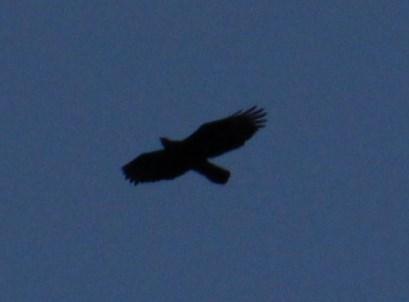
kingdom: Animalia
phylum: Chordata
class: Aves
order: Accipitriformes
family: Accipitridae
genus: Aquila
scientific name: Aquila verreauxii
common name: Verreaux's eagle
